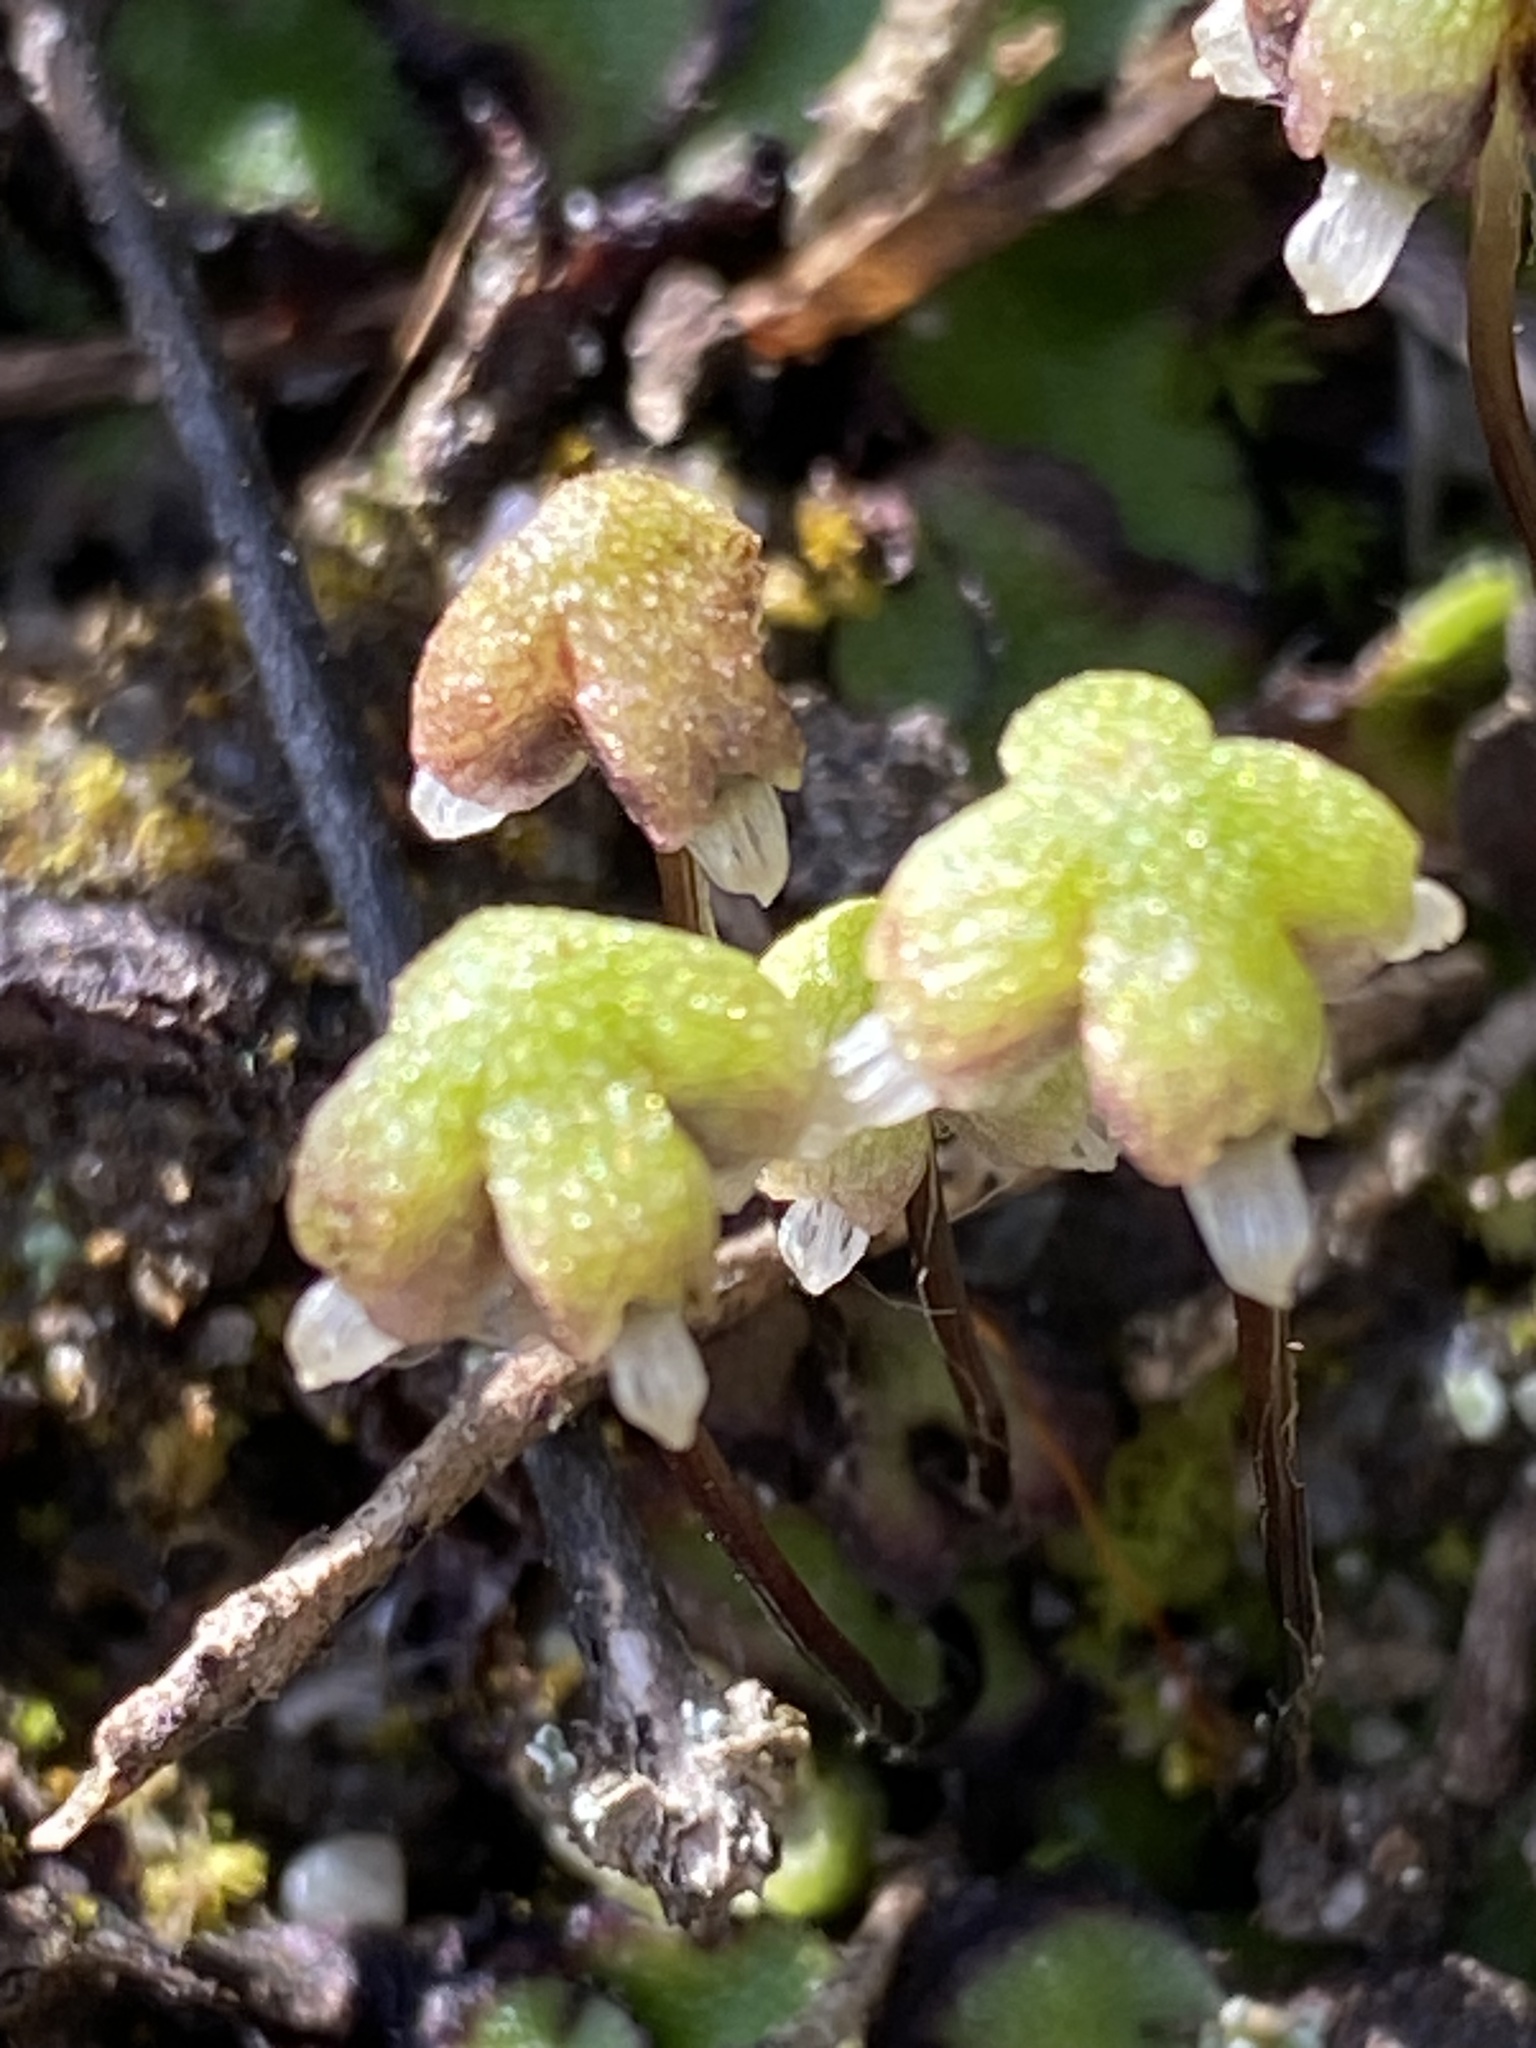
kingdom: Plantae
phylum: Marchantiophyta
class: Marchantiopsida
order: Marchantiales
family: Aytoniaceae
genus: Asterella
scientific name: Asterella californica
